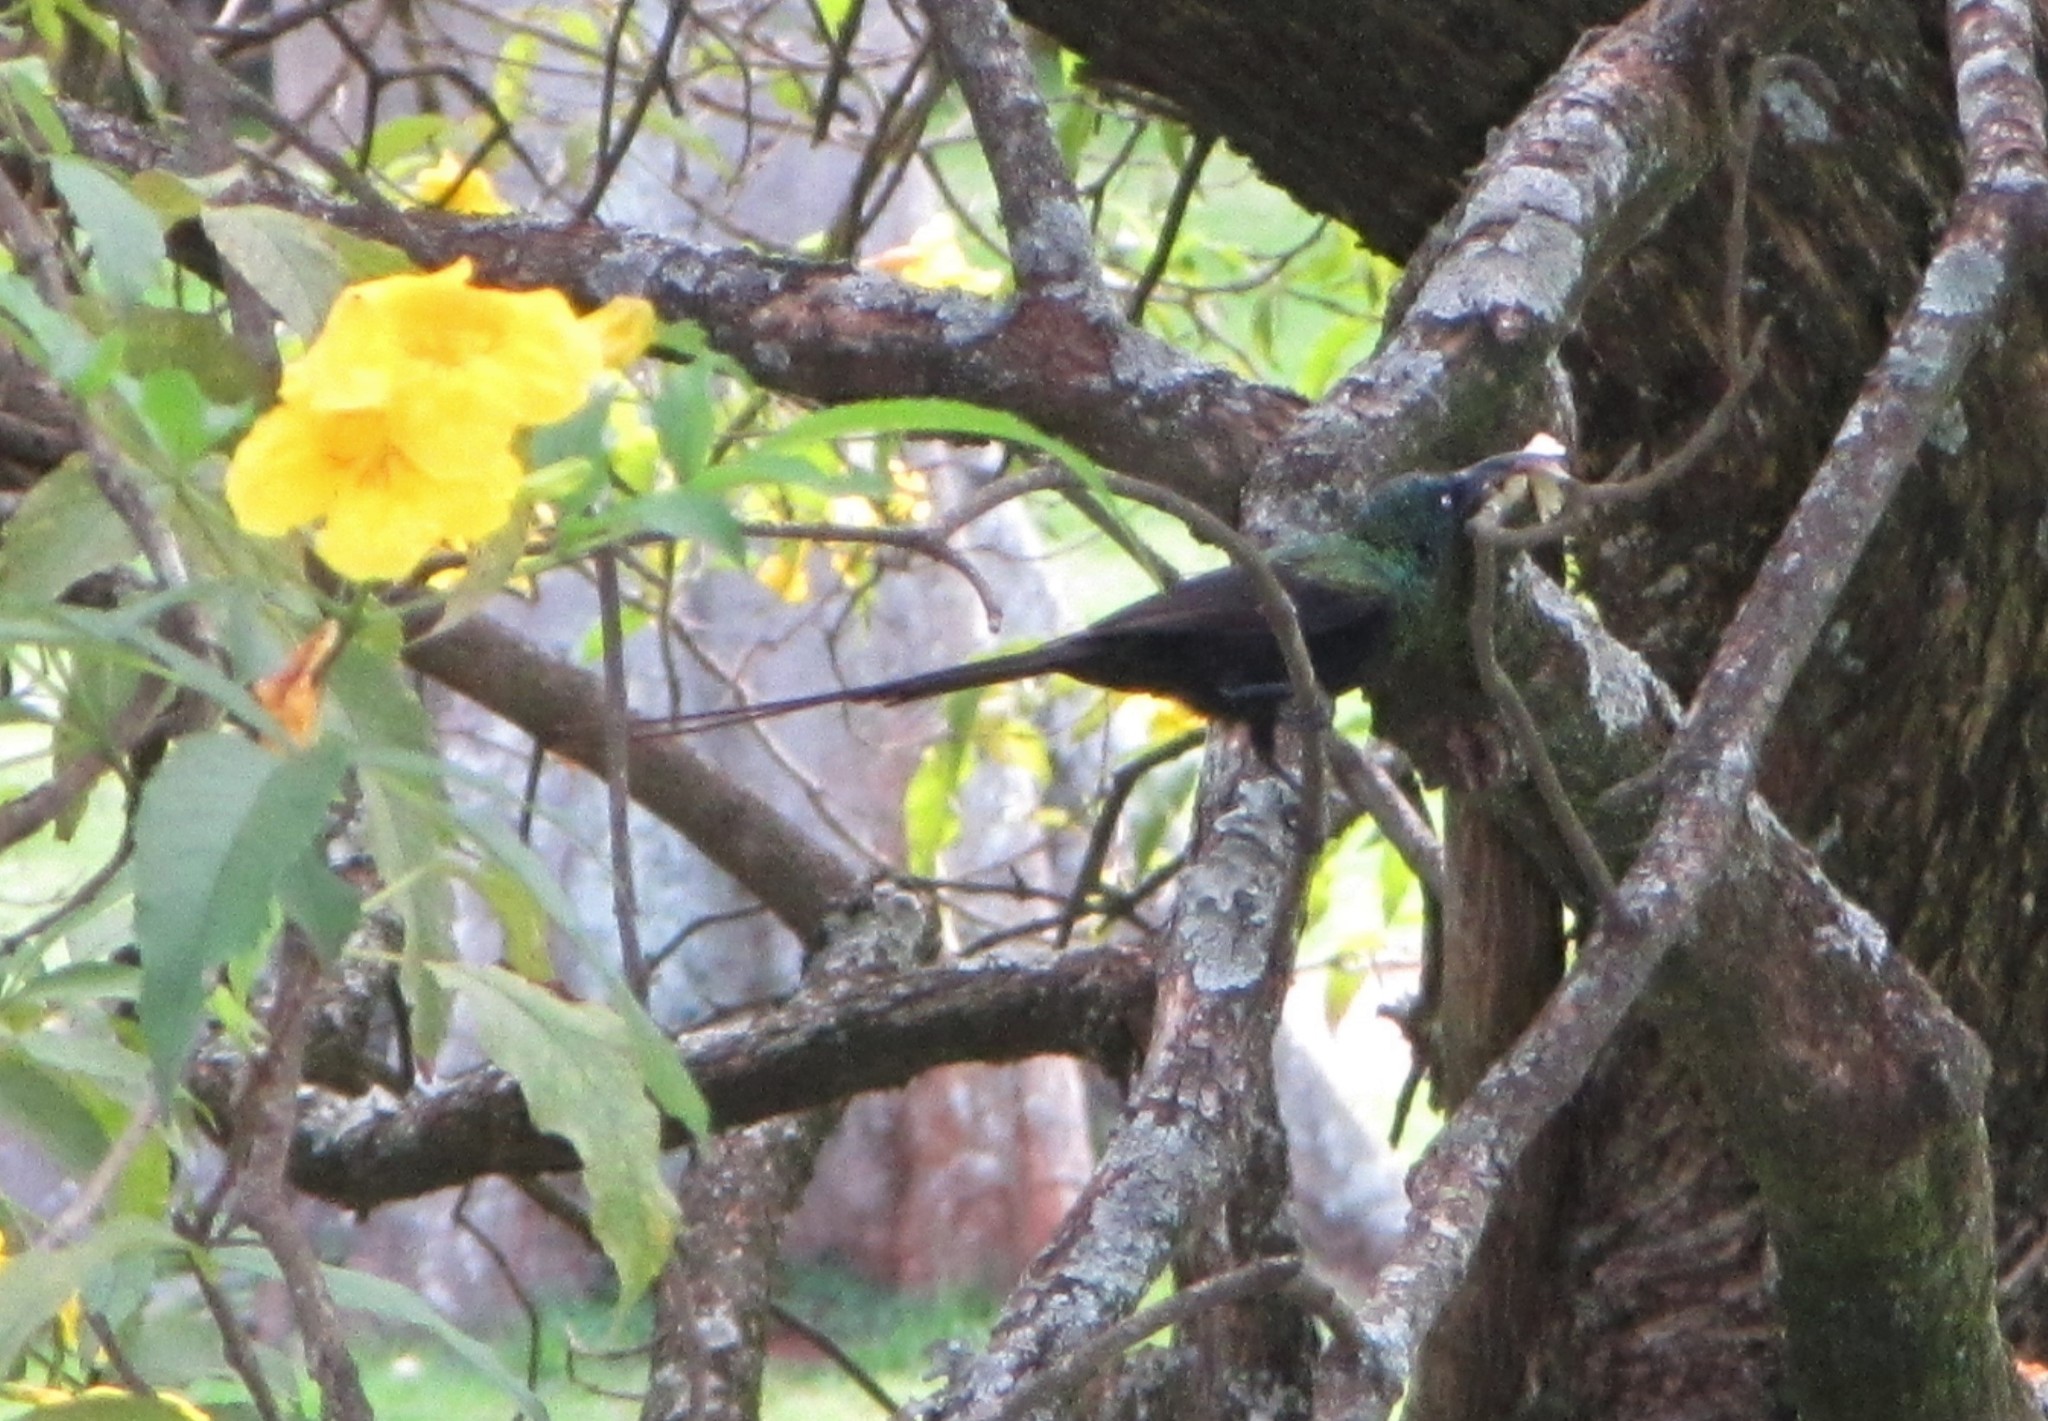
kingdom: Animalia
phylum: Chordata
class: Aves
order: Passeriformes
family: Nectariniidae
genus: Nectarinia
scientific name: Nectarinia kilimensis
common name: Bronzy sunbird
